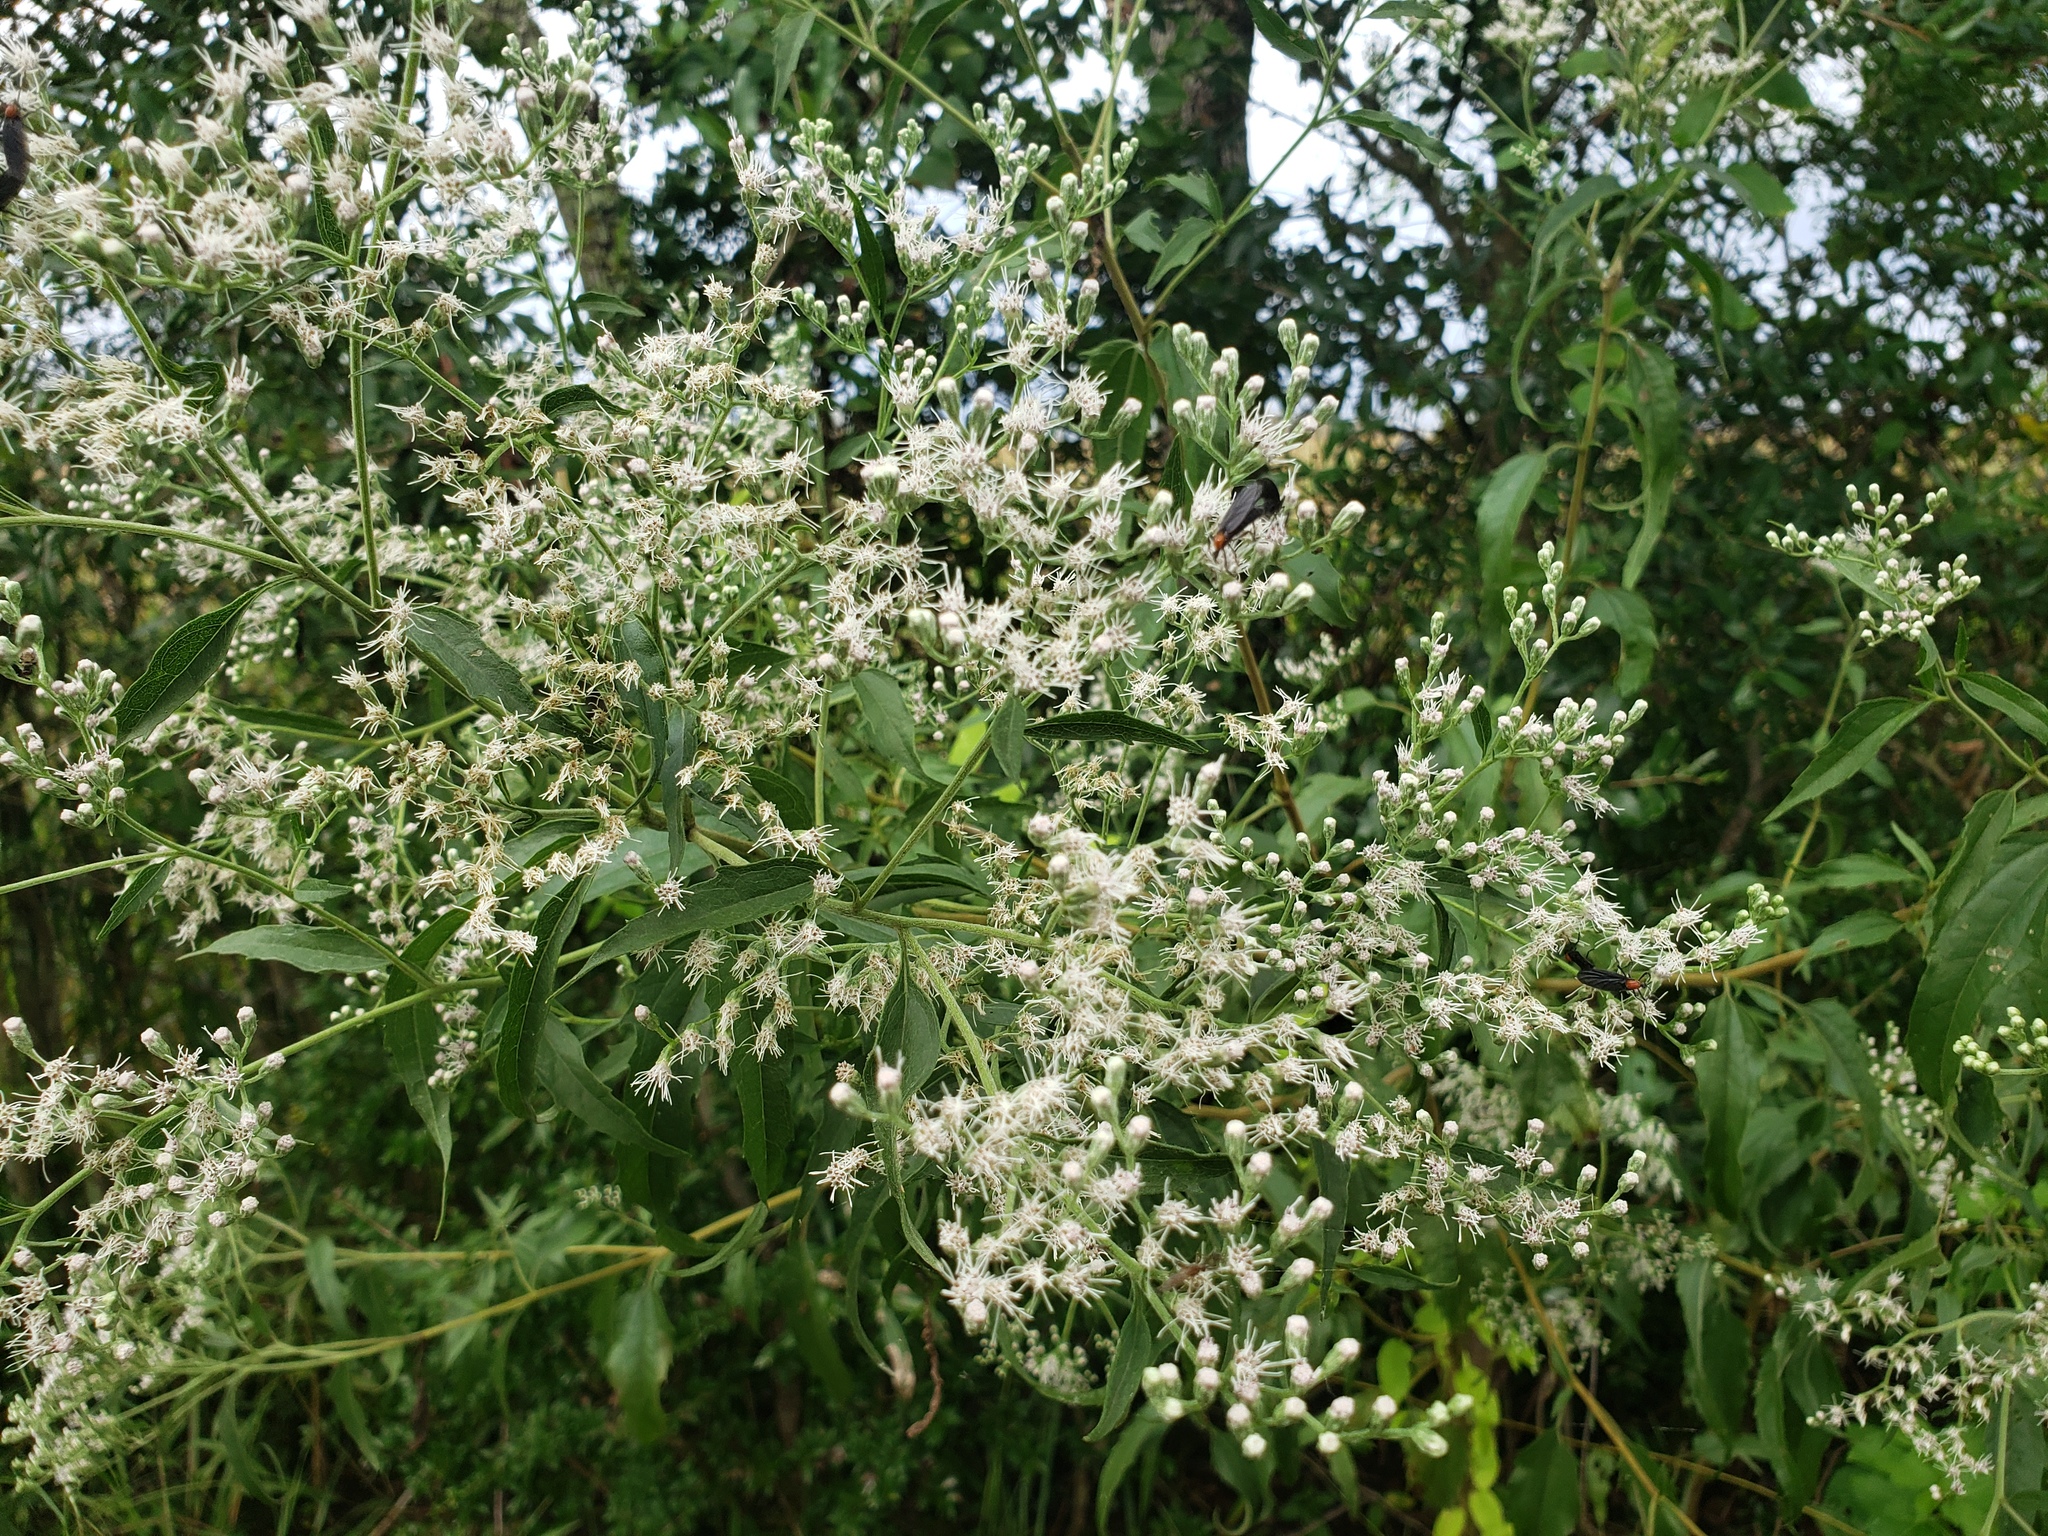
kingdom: Plantae
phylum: Tracheophyta
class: Magnoliopsida
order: Asterales
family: Asteraceae
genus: Eupatorium
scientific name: Eupatorium serotinum
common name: Late boneset
